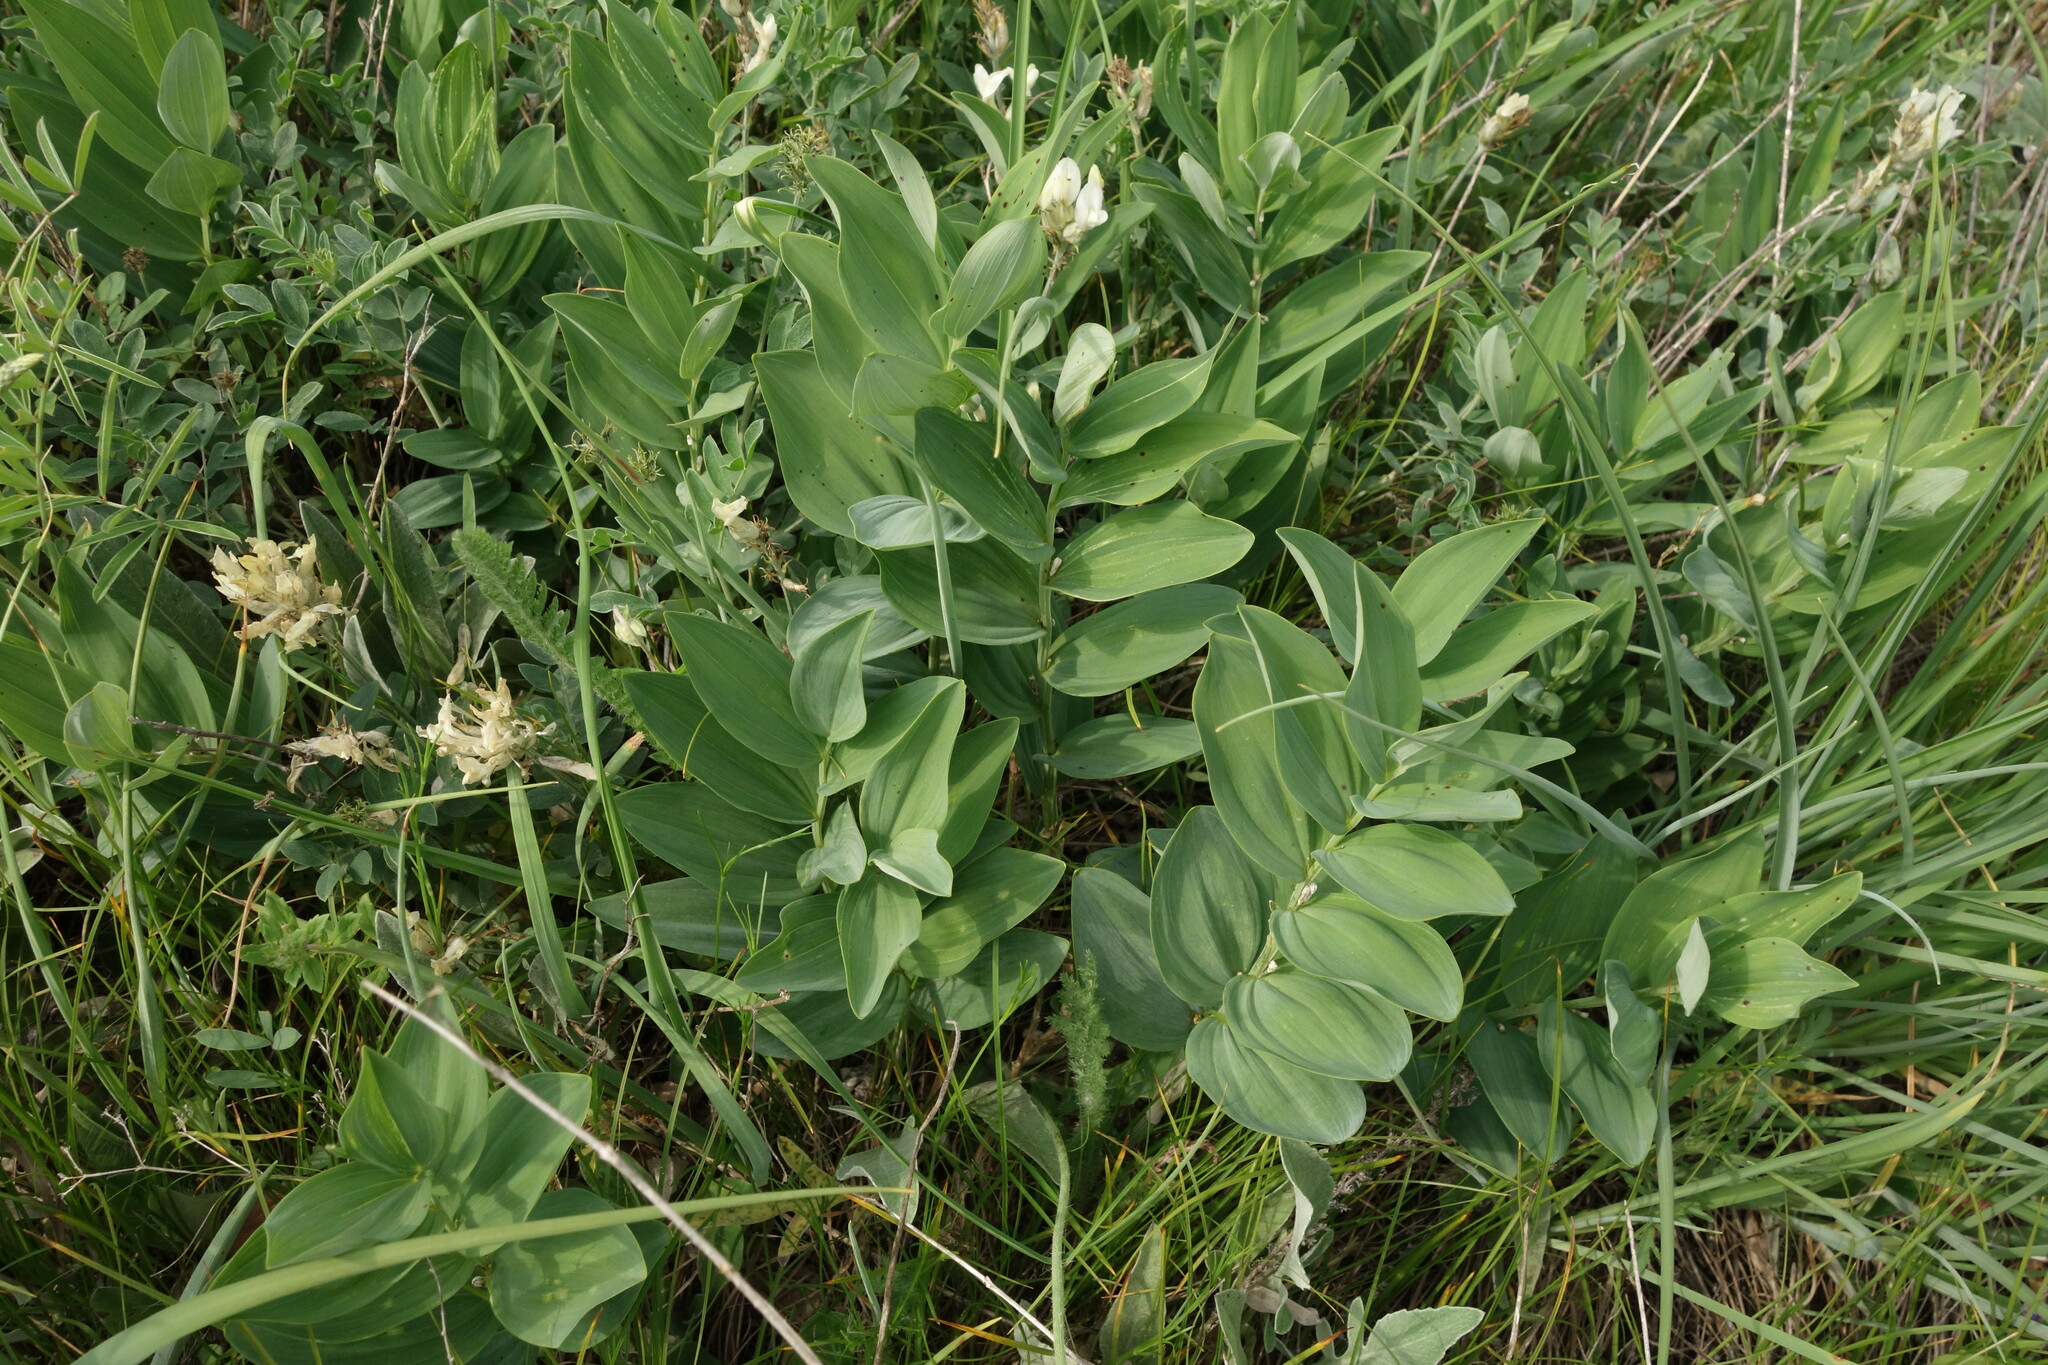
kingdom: Plantae
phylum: Tracheophyta
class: Liliopsida
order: Asparagales
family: Asparagaceae
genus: Polygonatum
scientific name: Polygonatum odoratum
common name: Angular solomon's-seal
